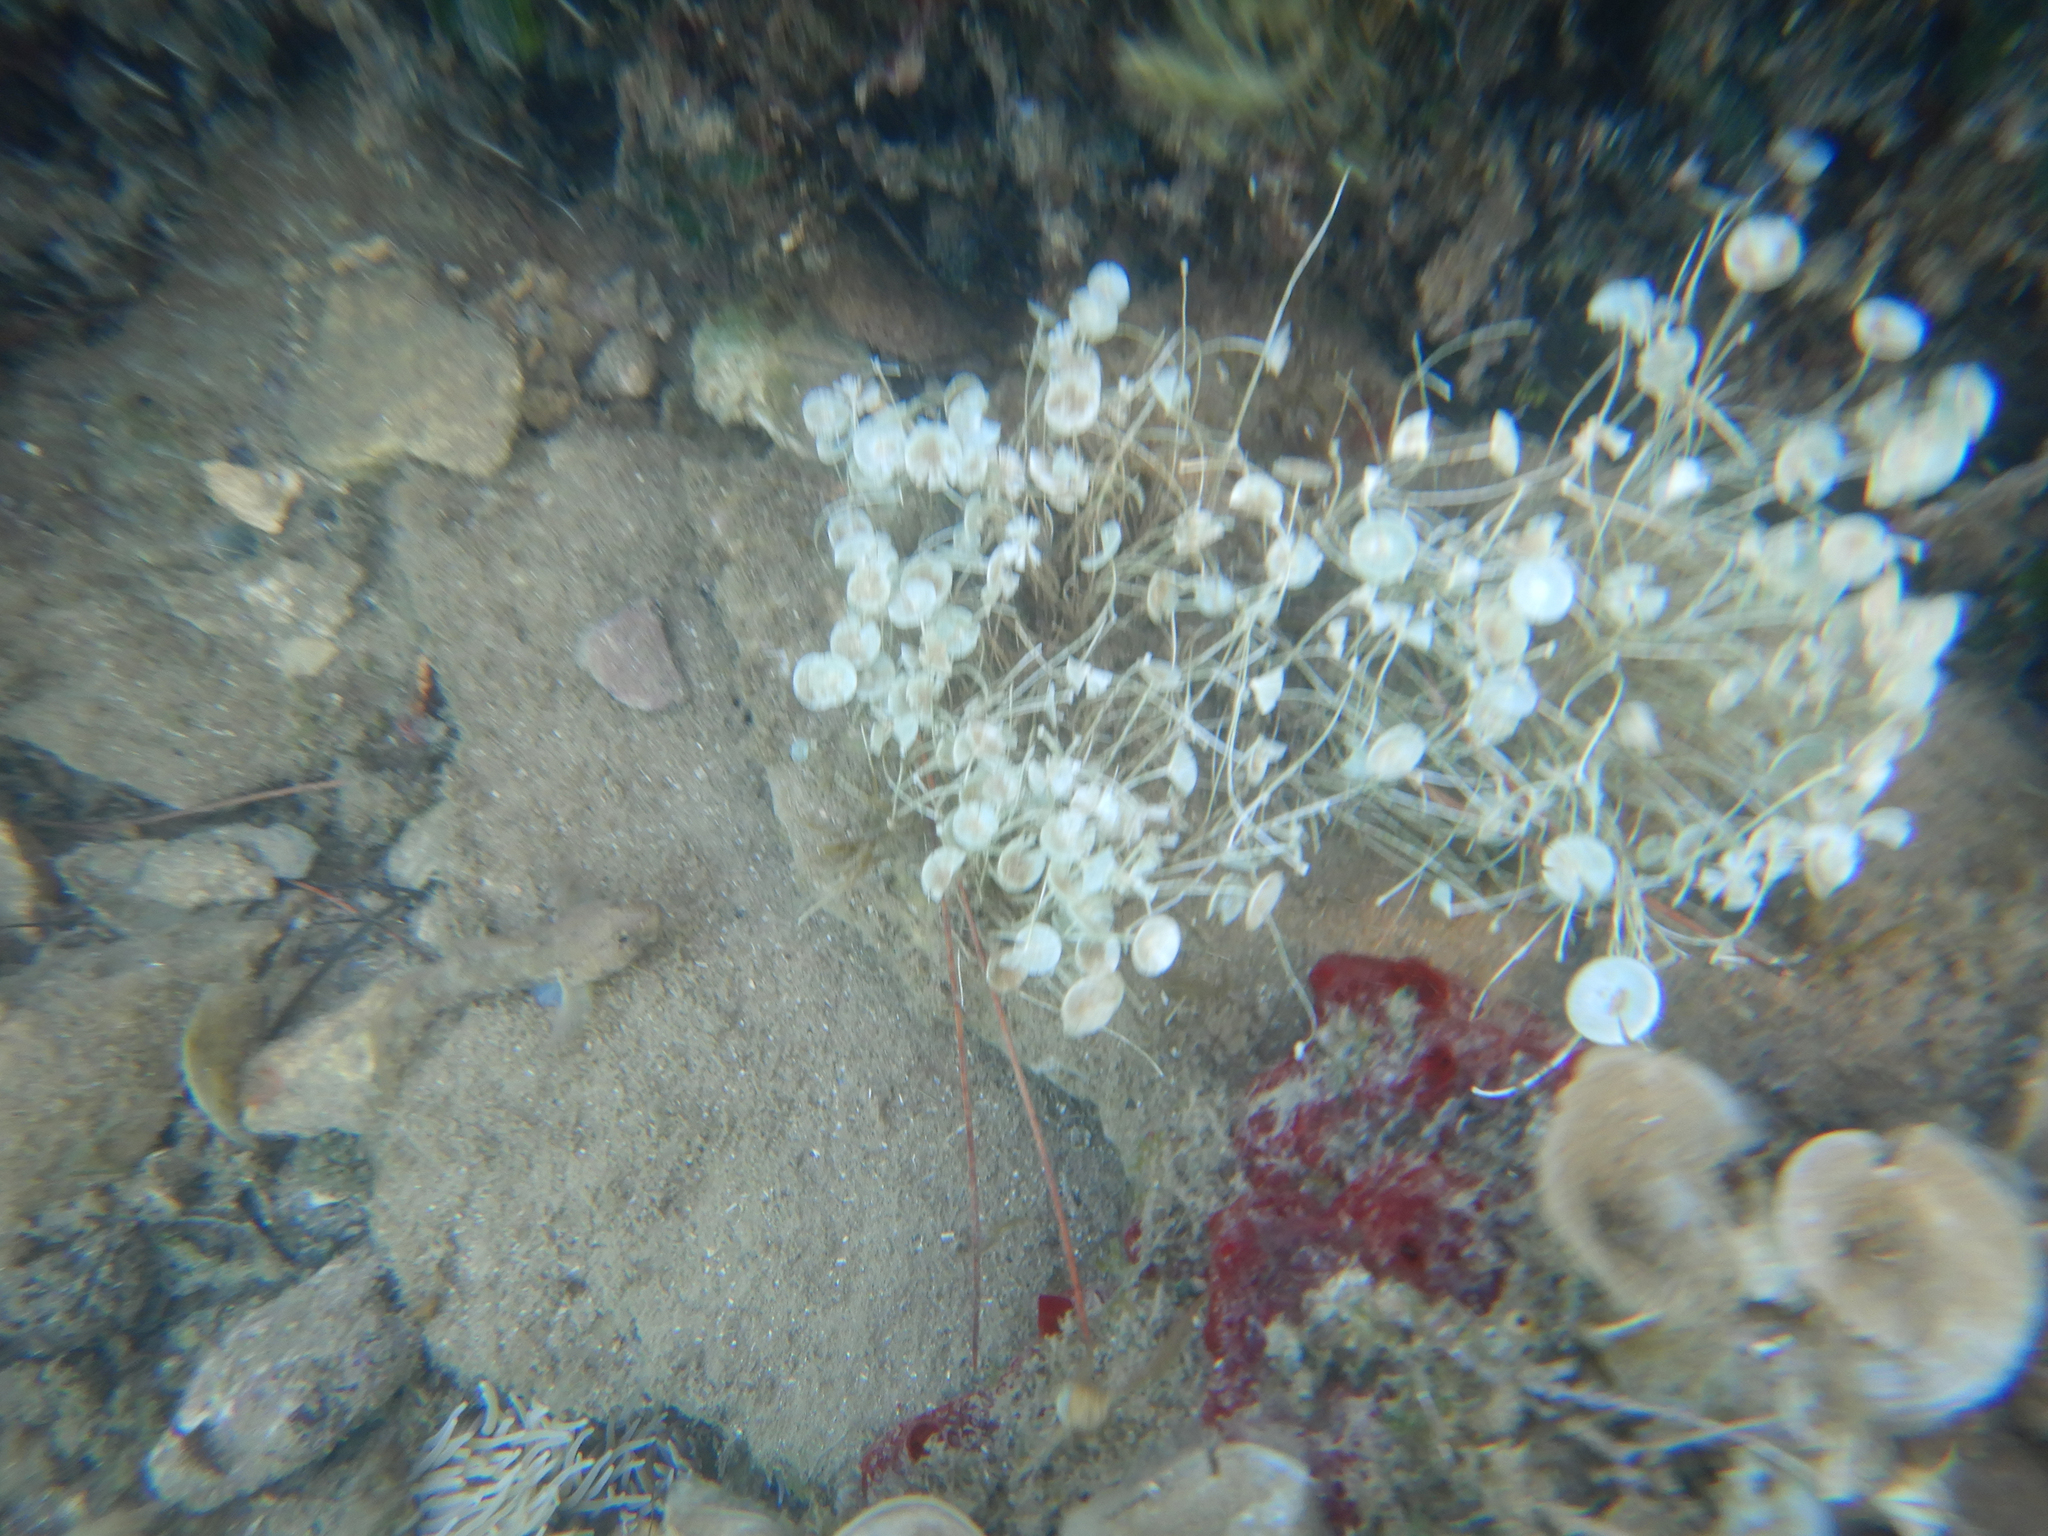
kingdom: Plantae
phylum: Chlorophyta
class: Ulvophyceae
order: Dasycladales
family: Polyphysaceae
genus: Acetabularia
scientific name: Acetabularia acetabulum
